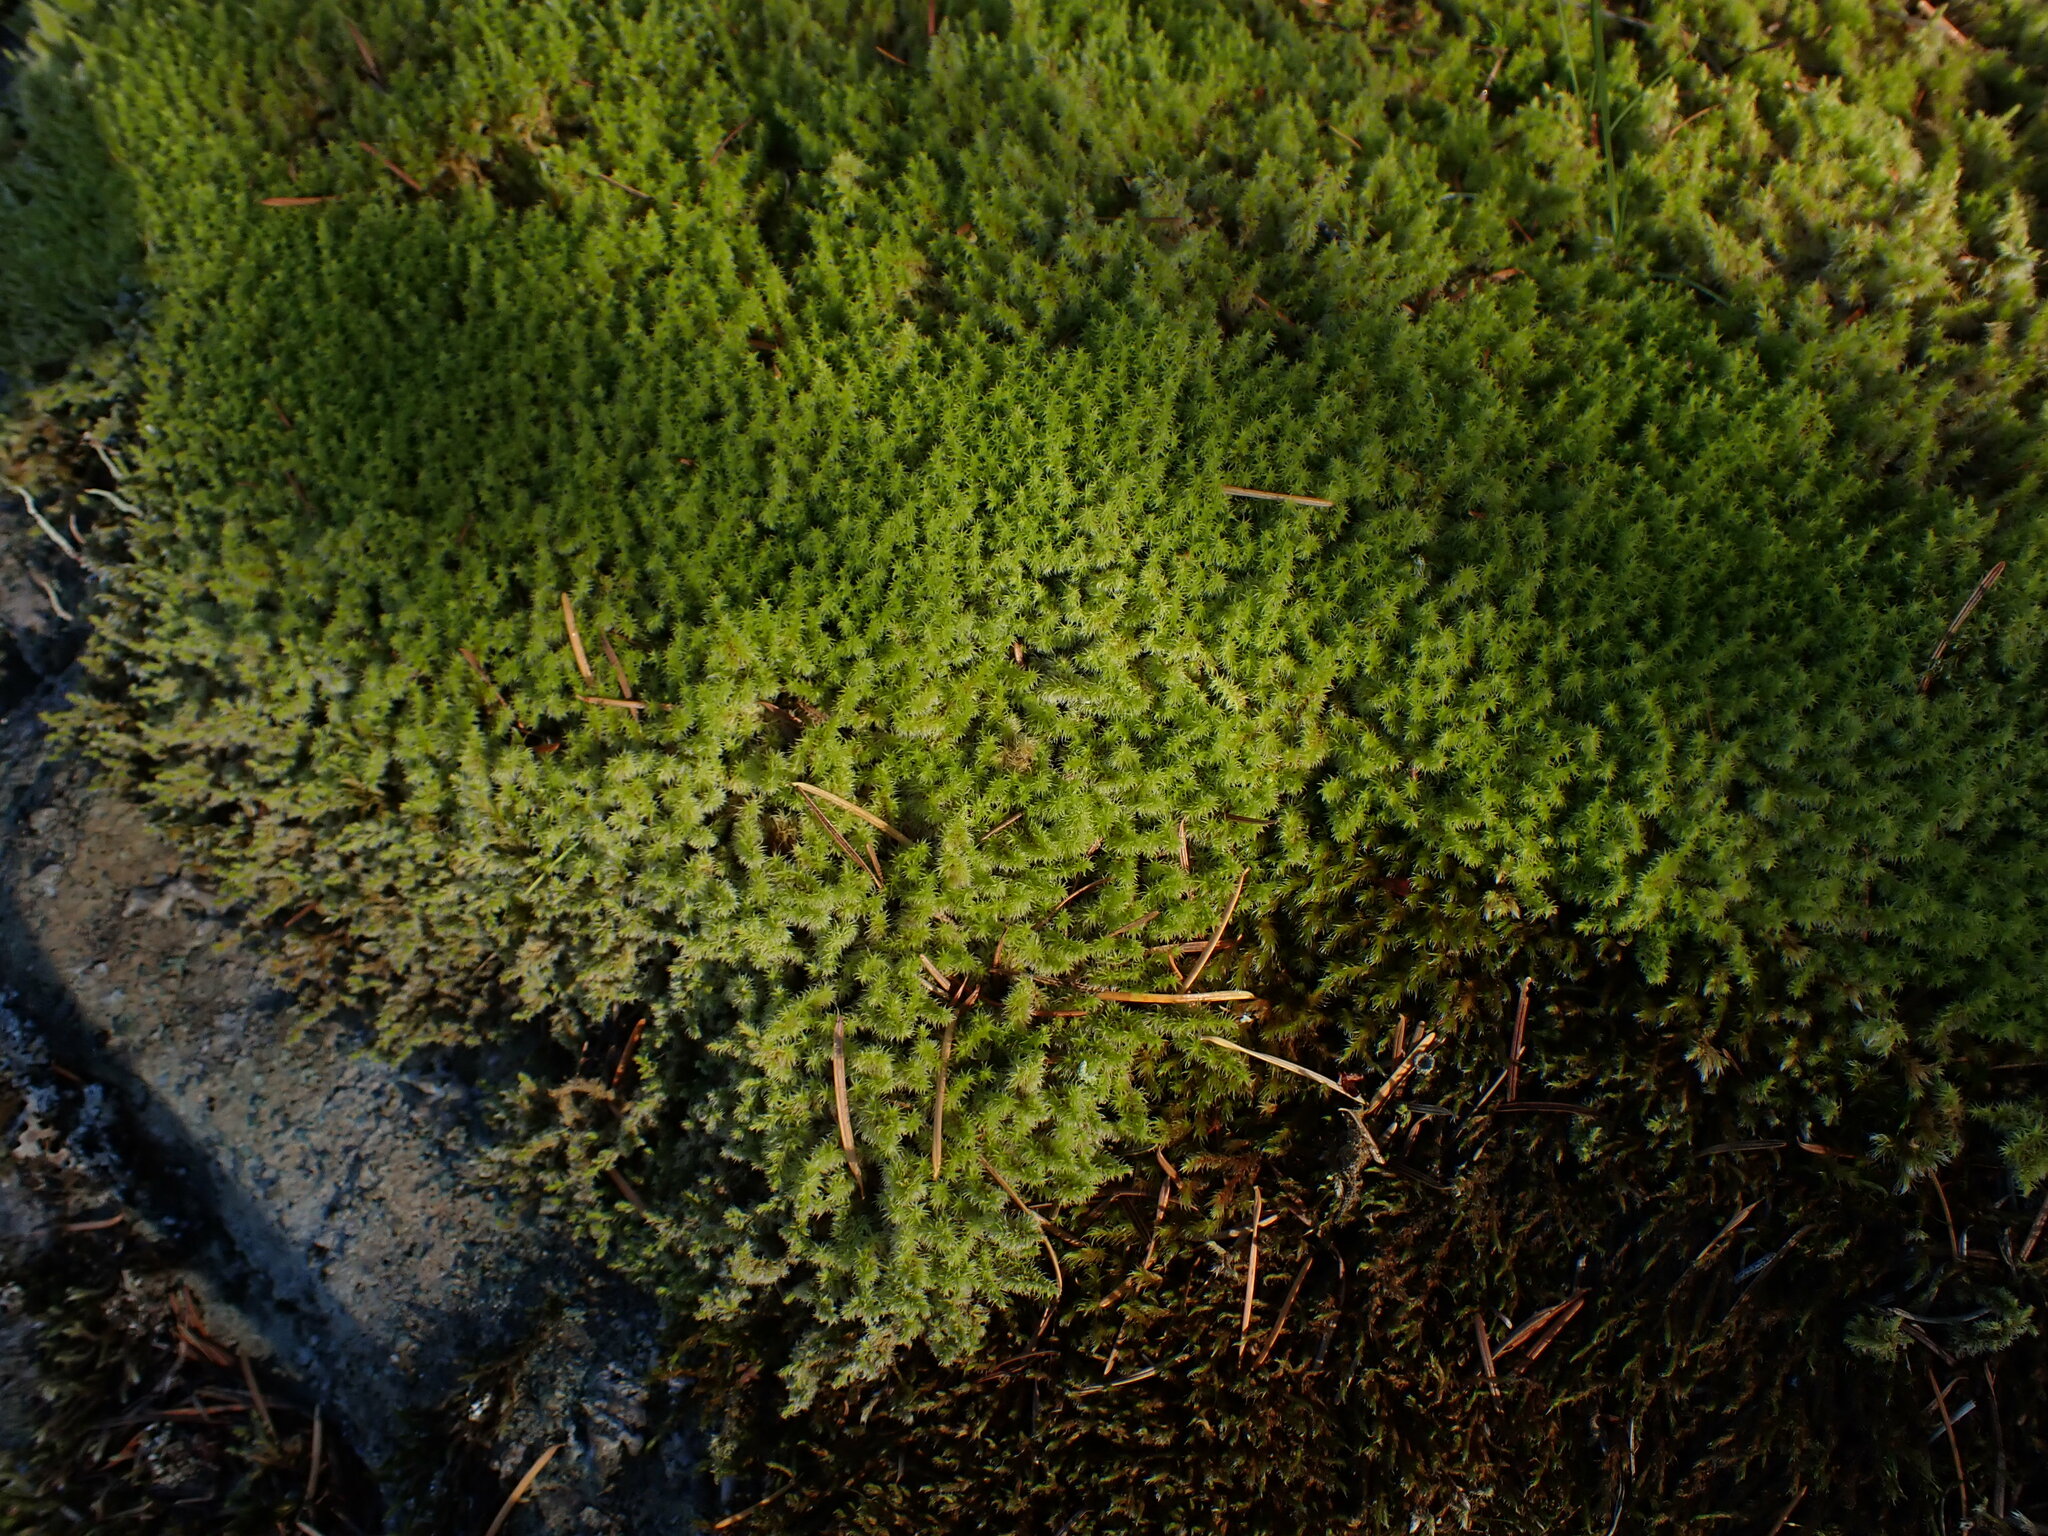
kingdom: Plantae
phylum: Bryophyta
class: Bryopsida
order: Grimmiales
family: Grimmiaceae
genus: Niphotrichum
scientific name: Niphotrichum elongatum
